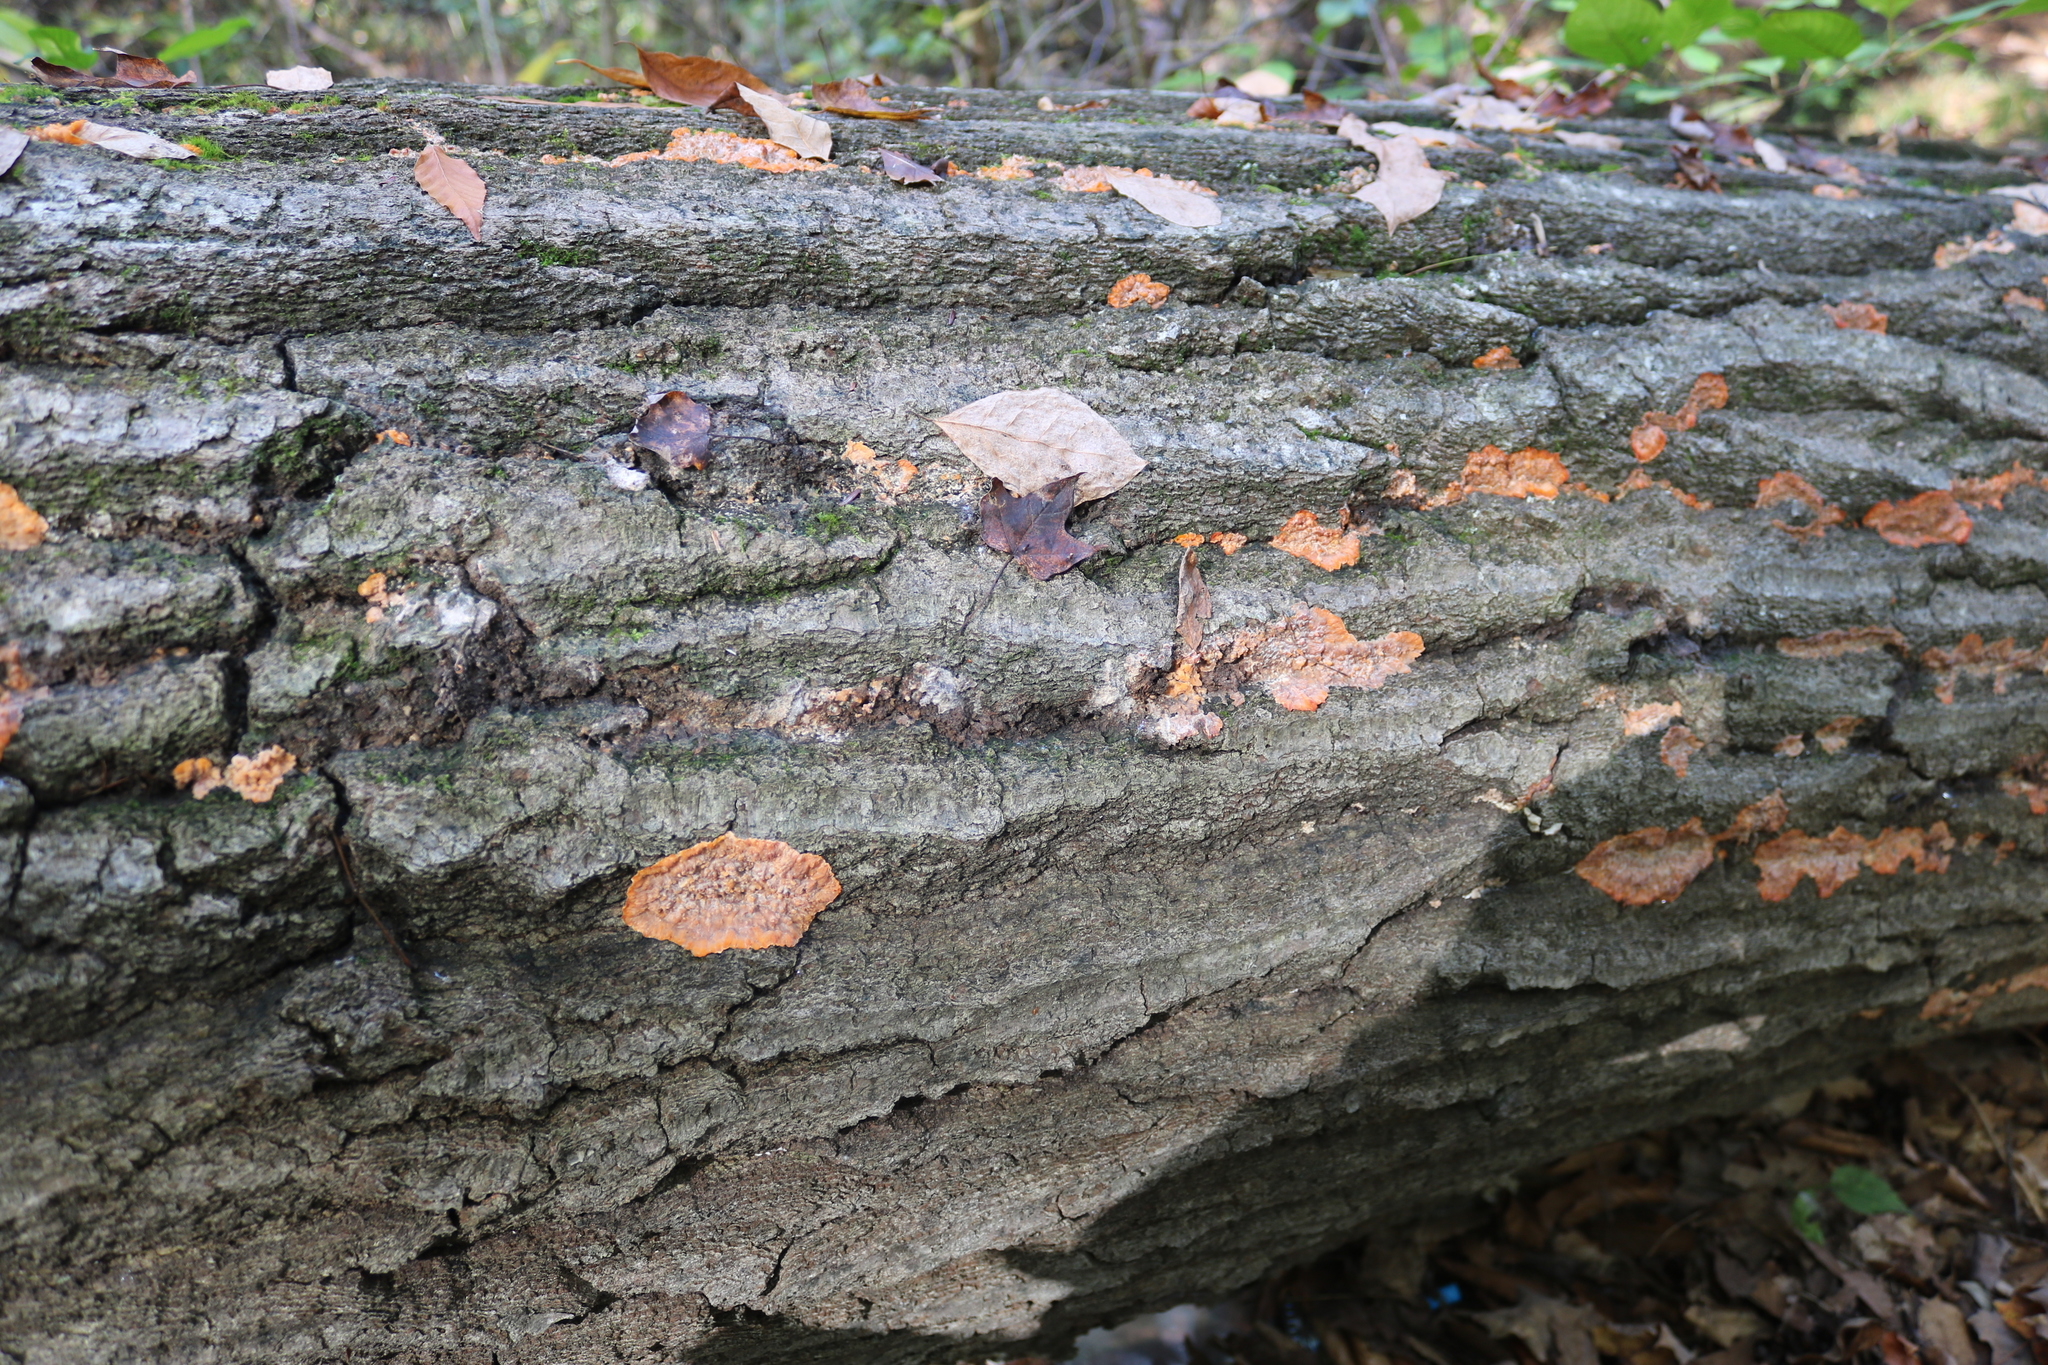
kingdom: Fungi
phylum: Basidiomycota
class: Agaricomycetes
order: Polyporales
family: Meruliaceae
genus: Phlebia
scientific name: Phlebia radiata
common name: Wrinkled crust
